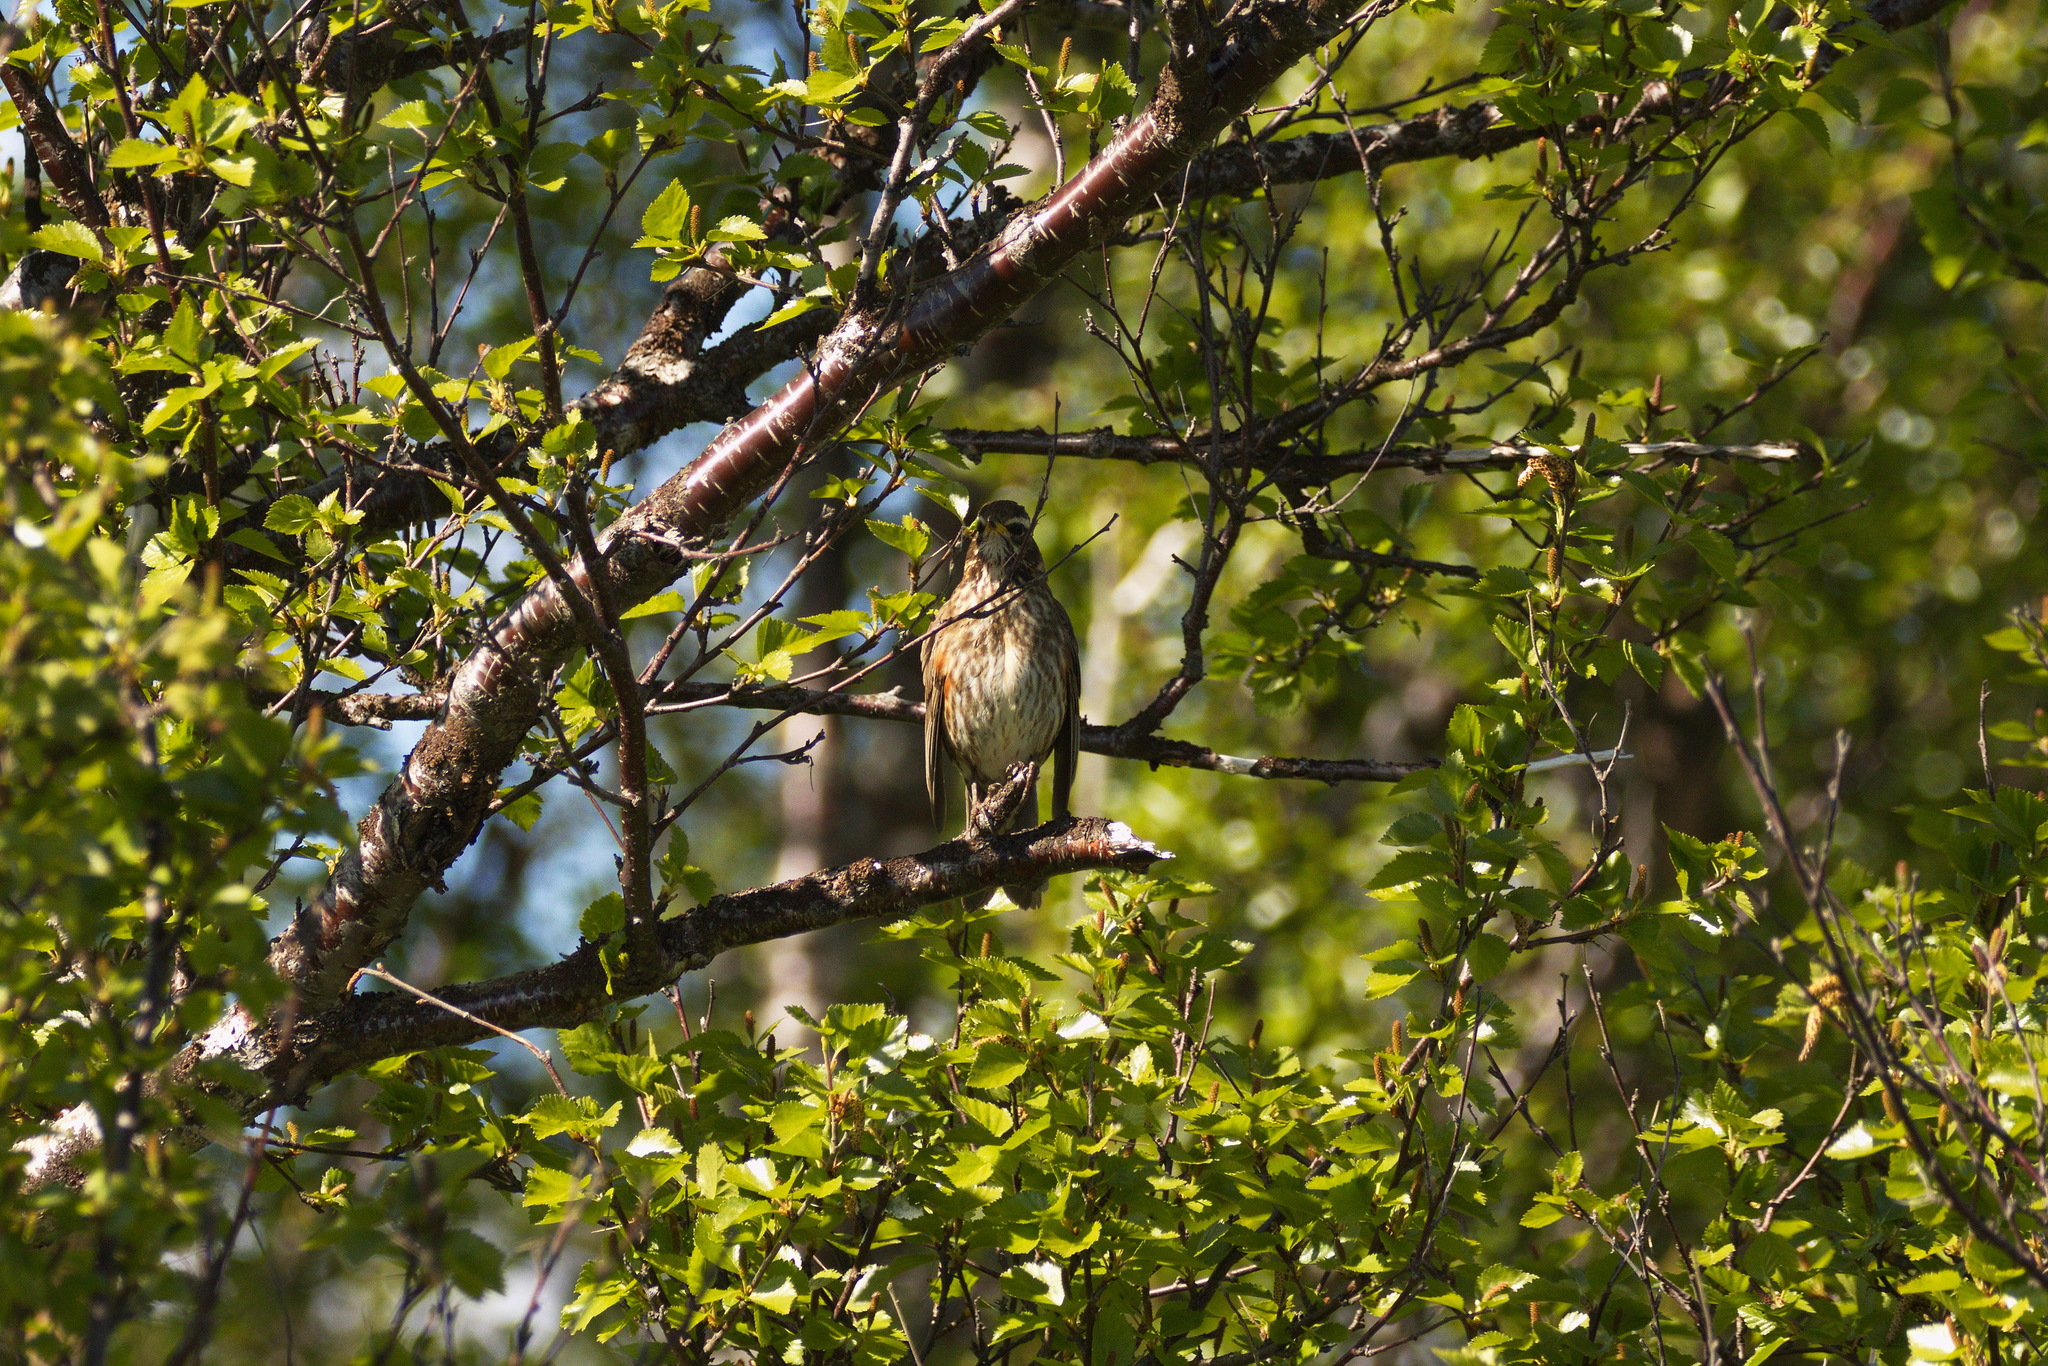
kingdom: Animalia
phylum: Chordata
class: Aves
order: Passeriformes
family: Turdidae
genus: Turdus
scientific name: Turdus iliacus
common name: Redwing
